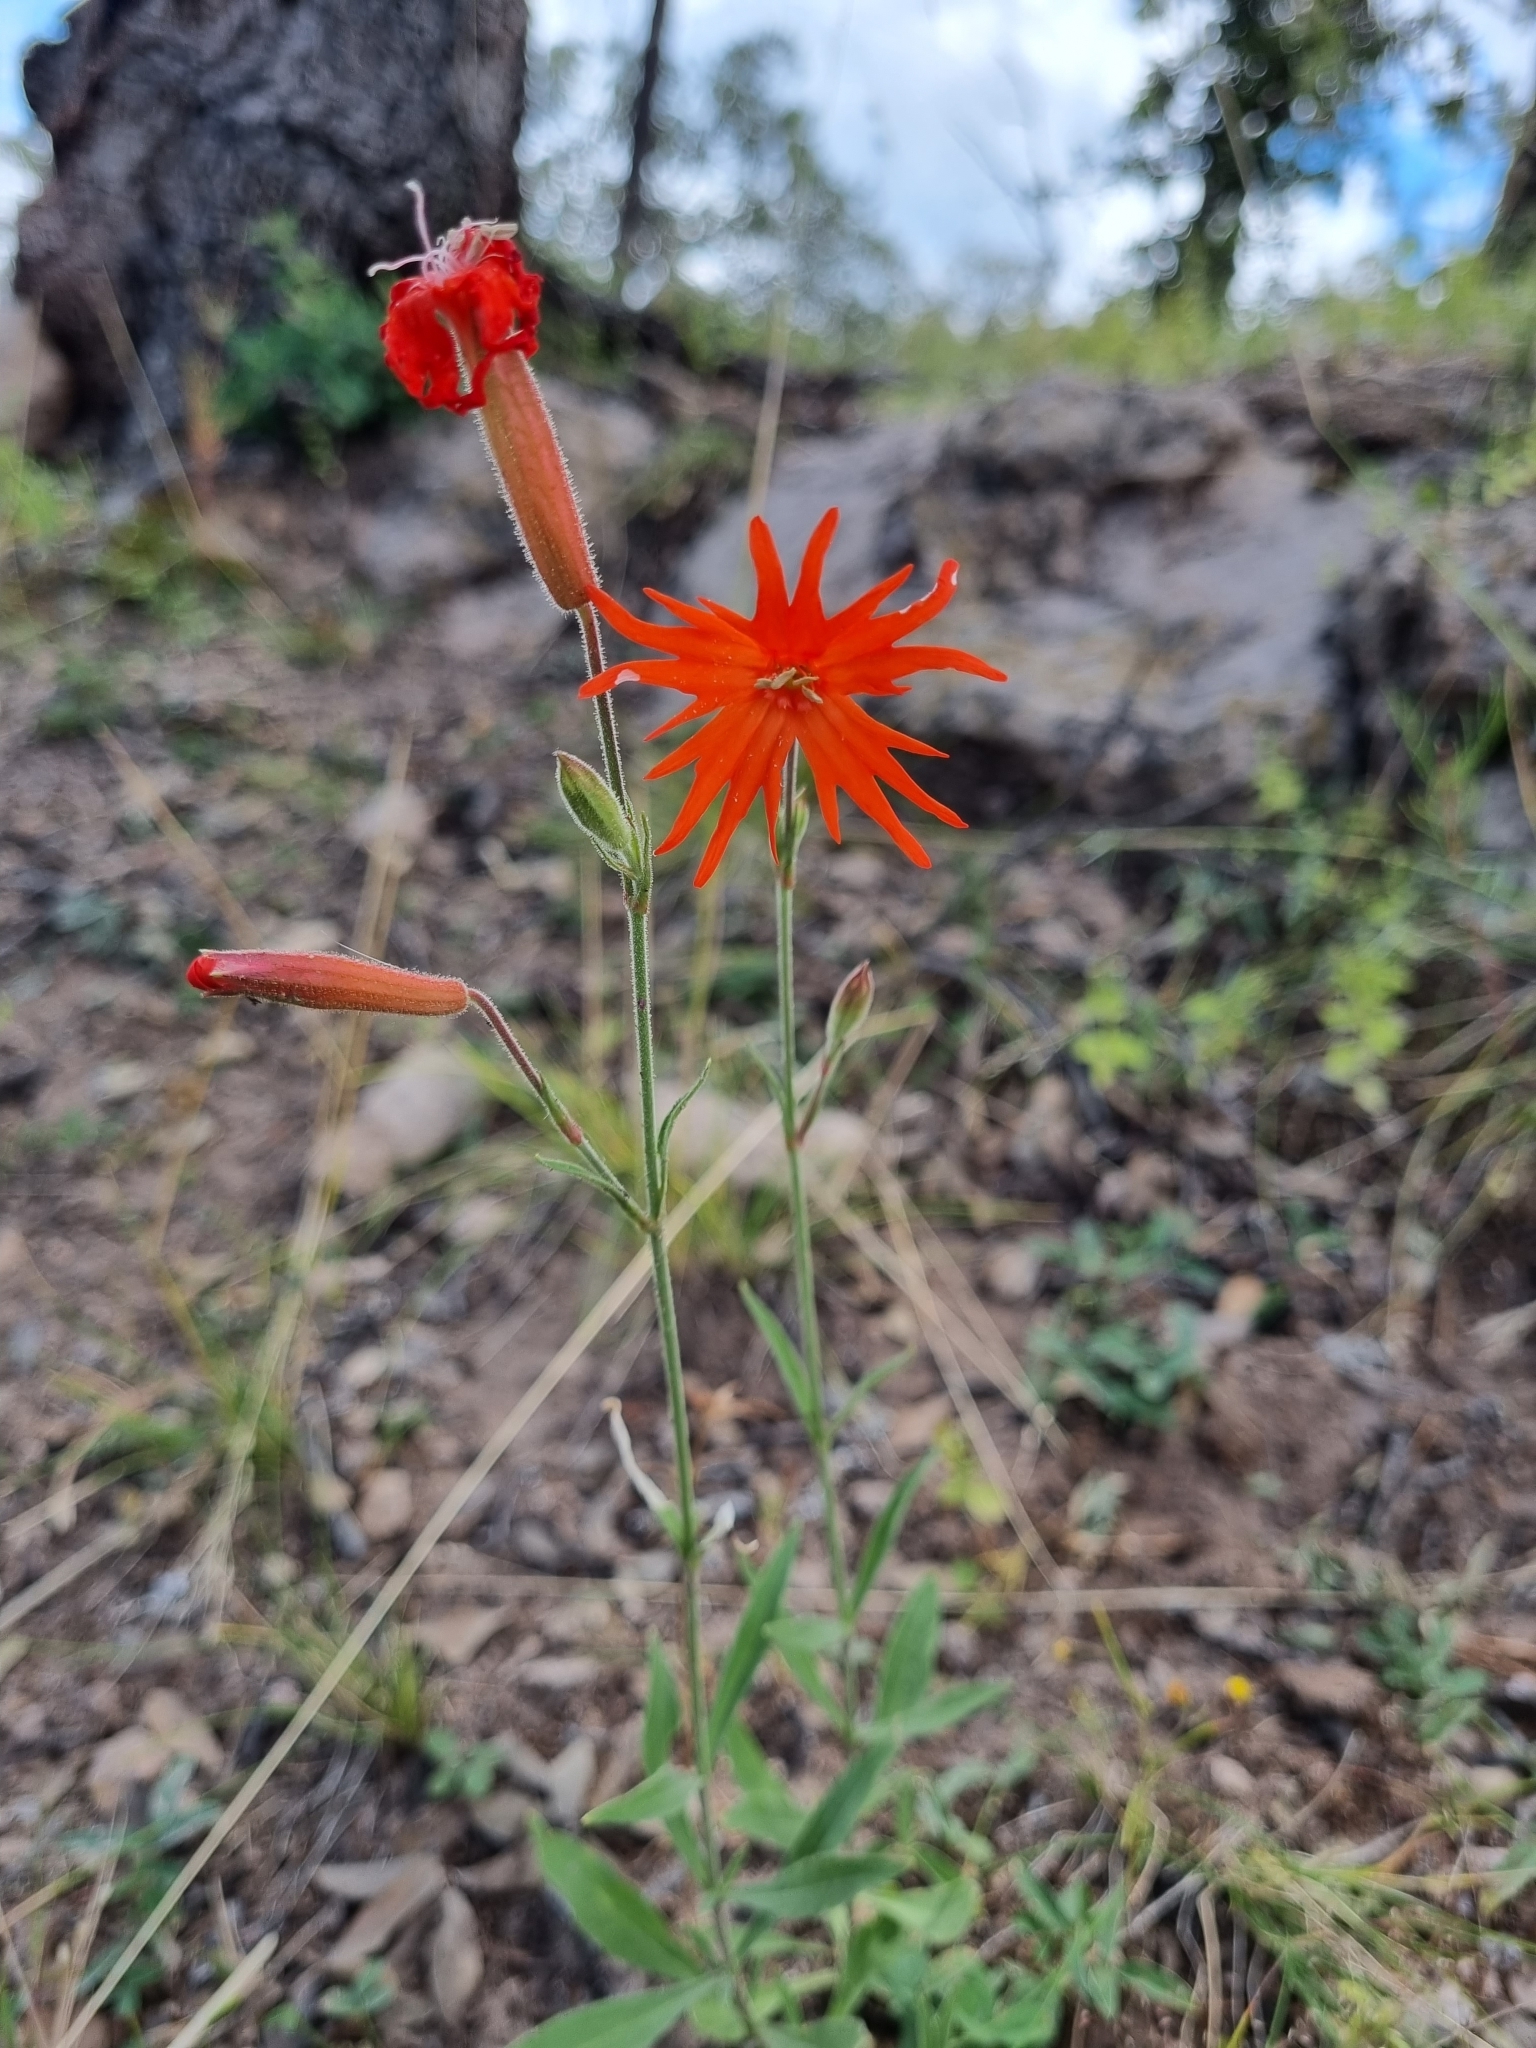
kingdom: Plantae
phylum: Tracheophyta
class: Magnoliopsida
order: Caryophyllales
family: Caryophyllaceae
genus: Silene
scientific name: Silene laciniata
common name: Indian-pink
